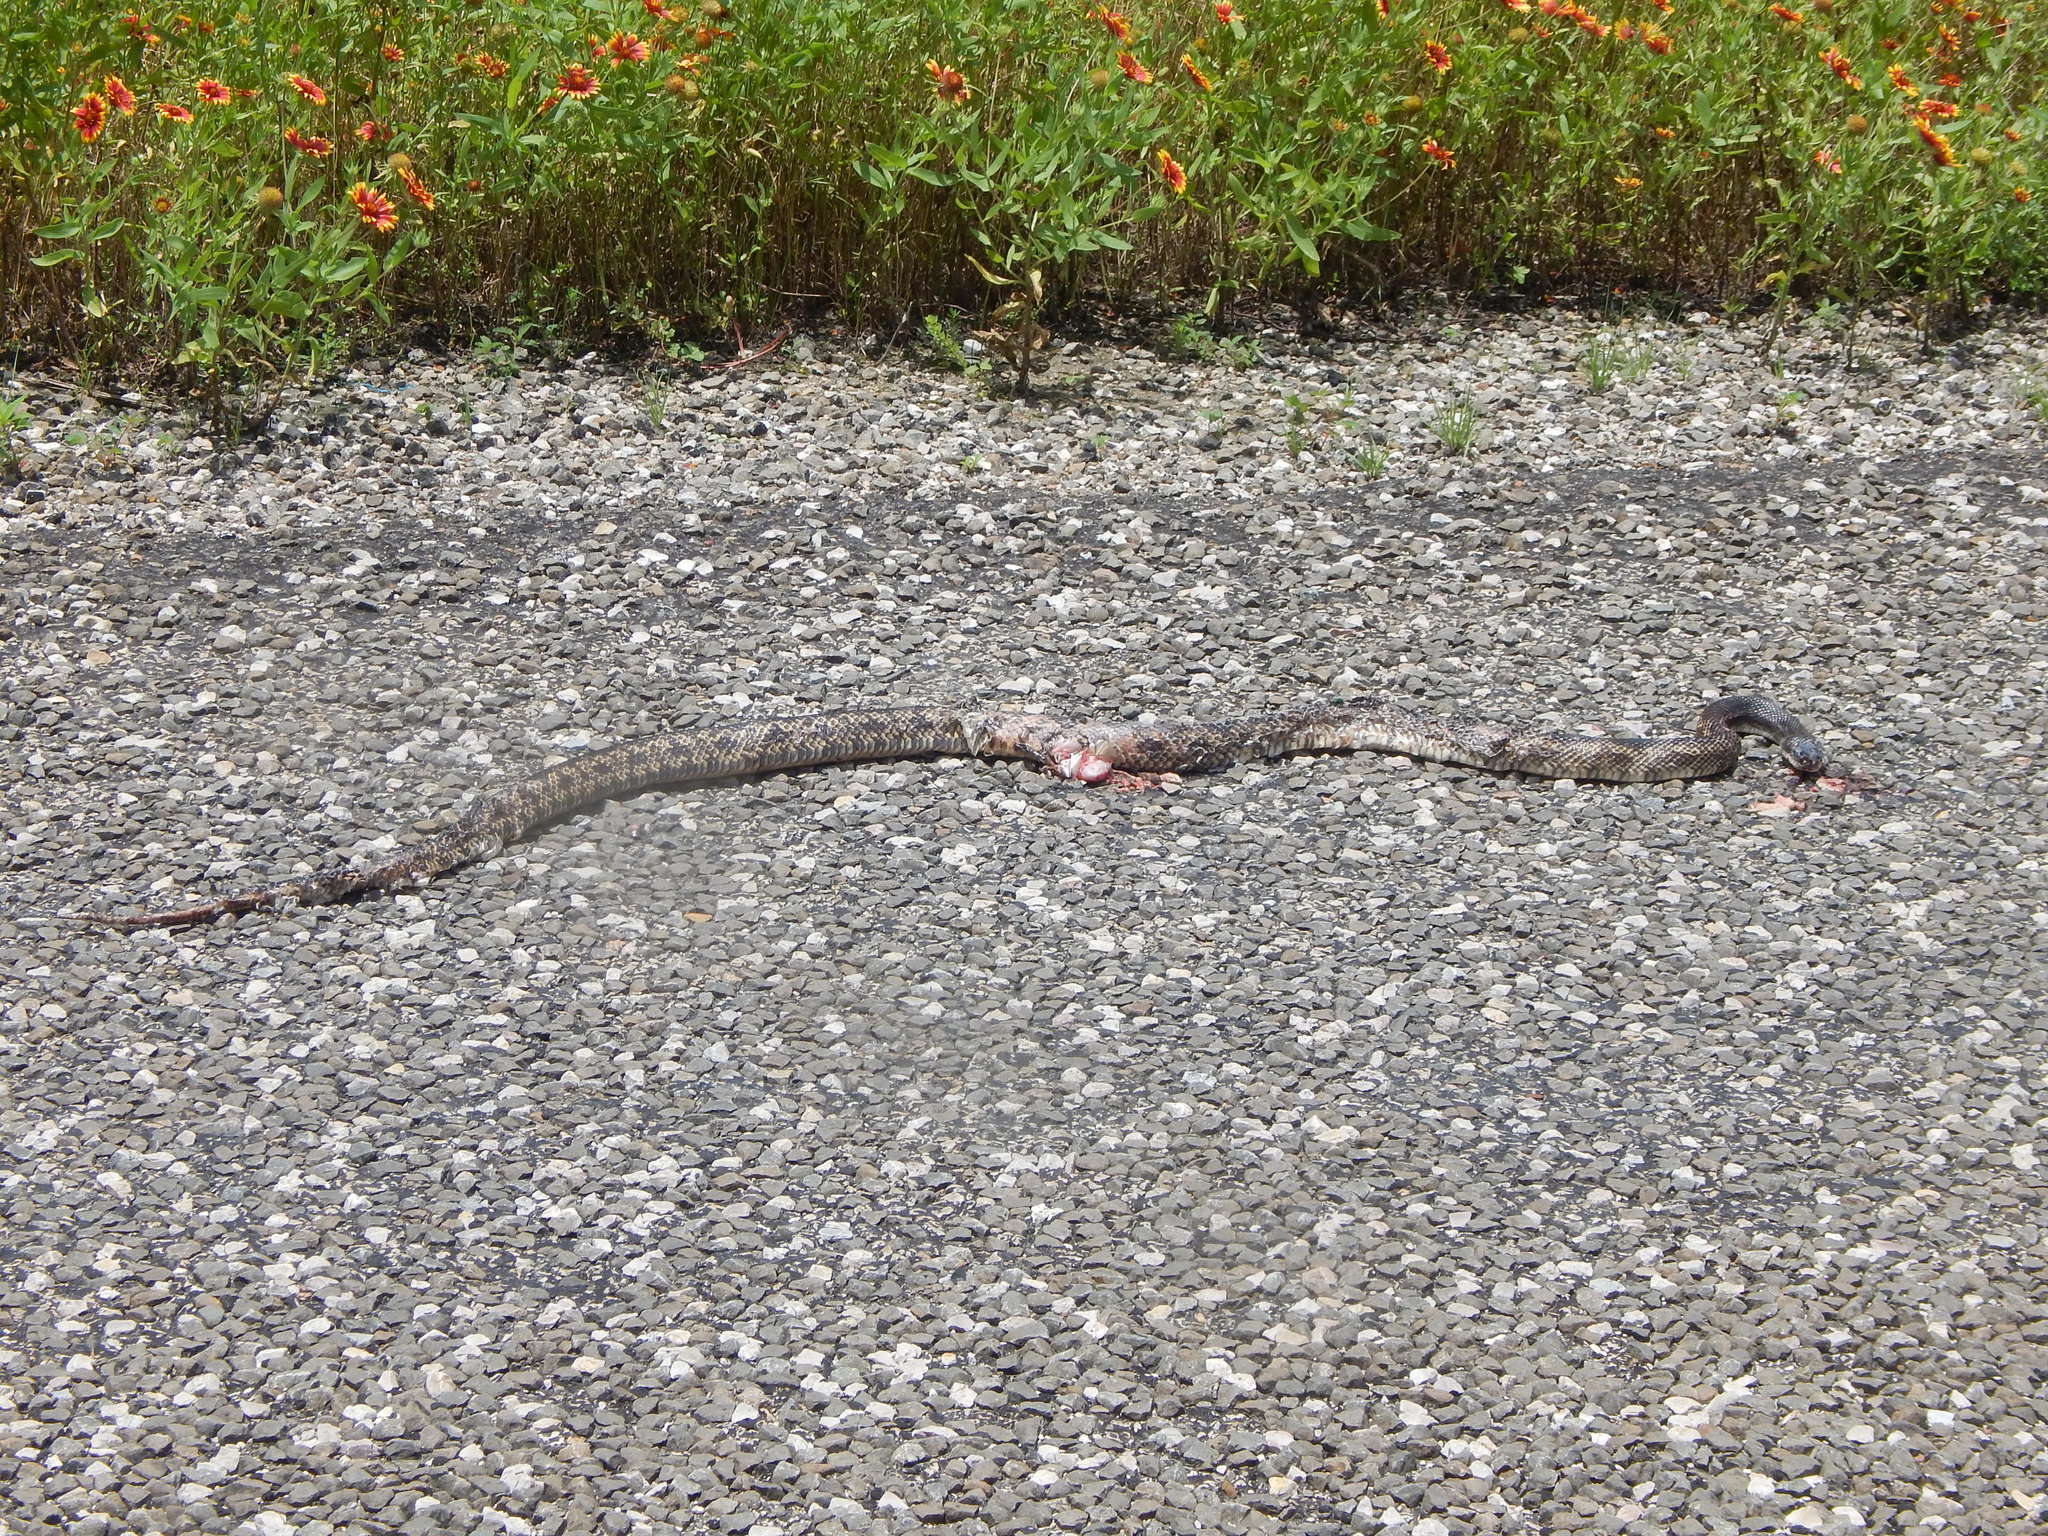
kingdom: Animalia
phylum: Chordata
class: Squamata
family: Colubridae
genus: Pantherophis
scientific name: Pantherophis obsoletus
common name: Black rat snake
